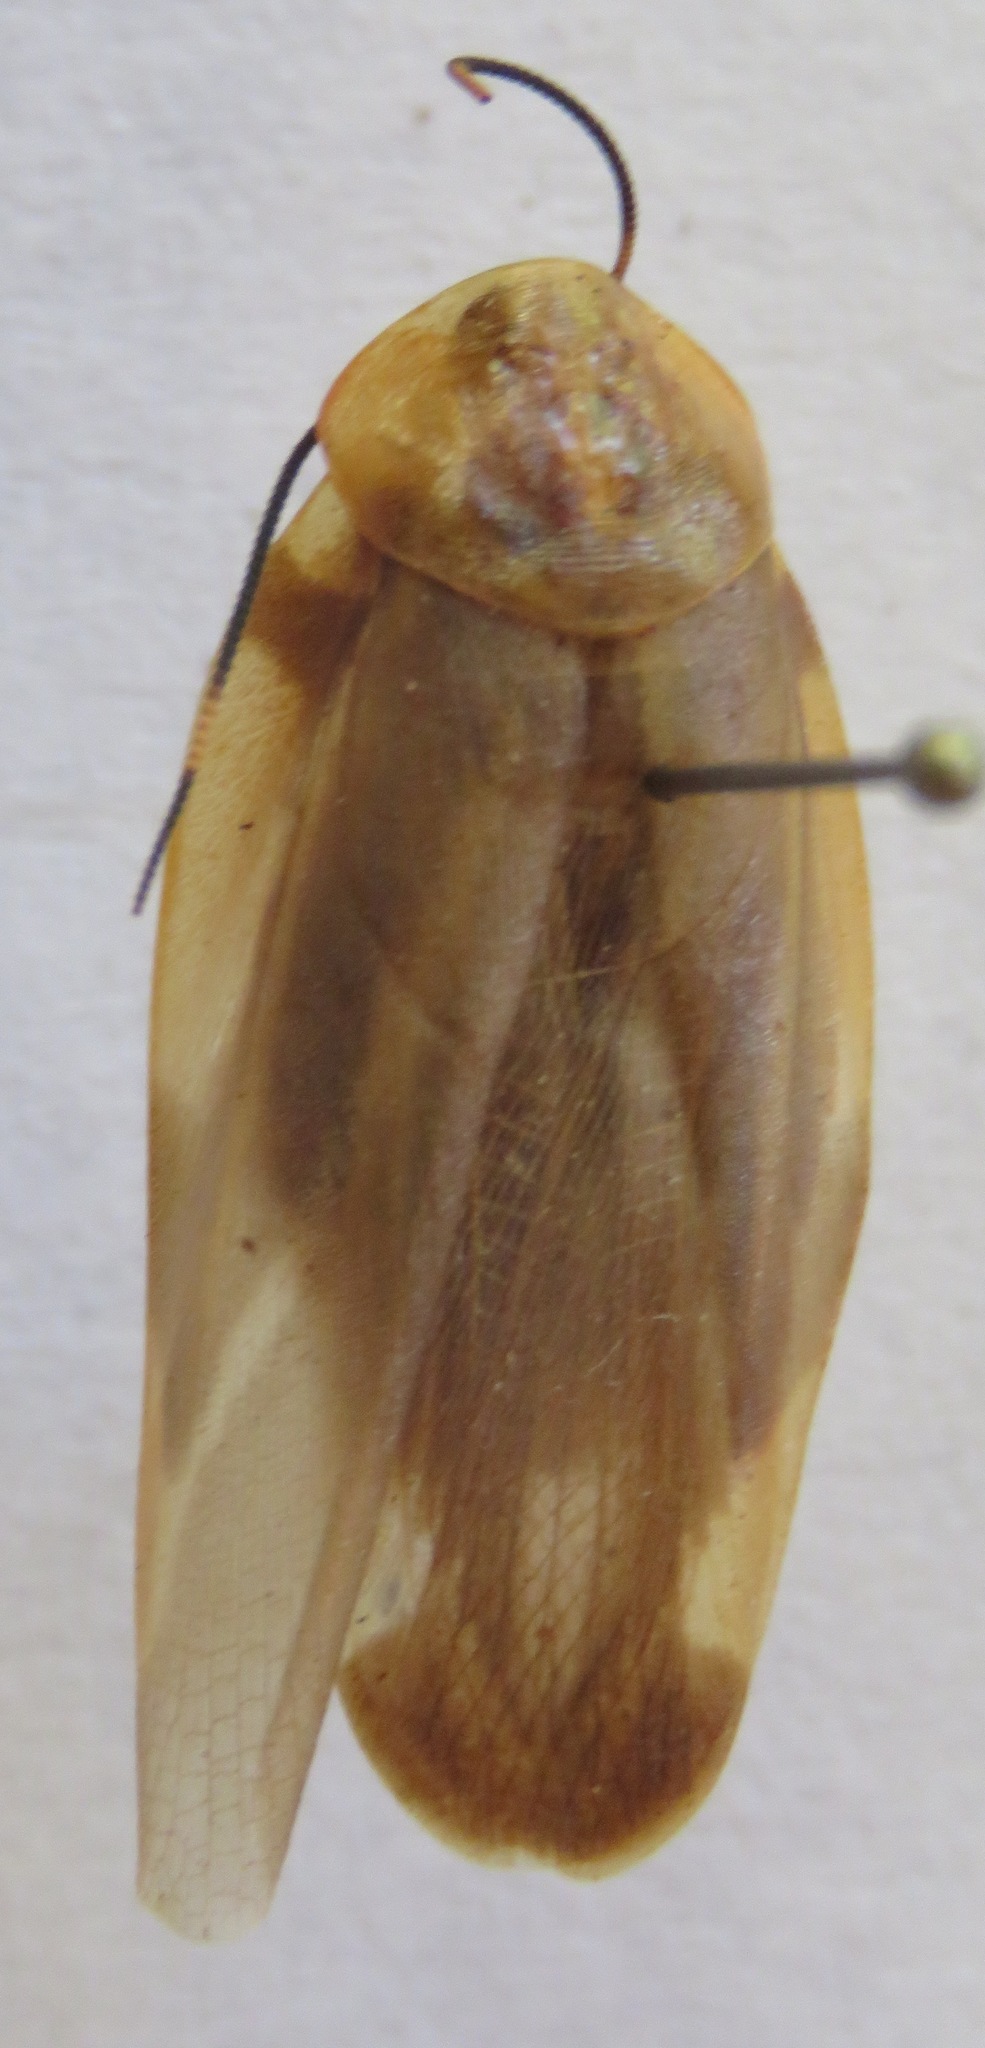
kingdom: Animalia
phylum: Arthropoda
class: Insecta
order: Blattodea
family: Blaberidae
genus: Achroblatta
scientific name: Achroblatta luteola
